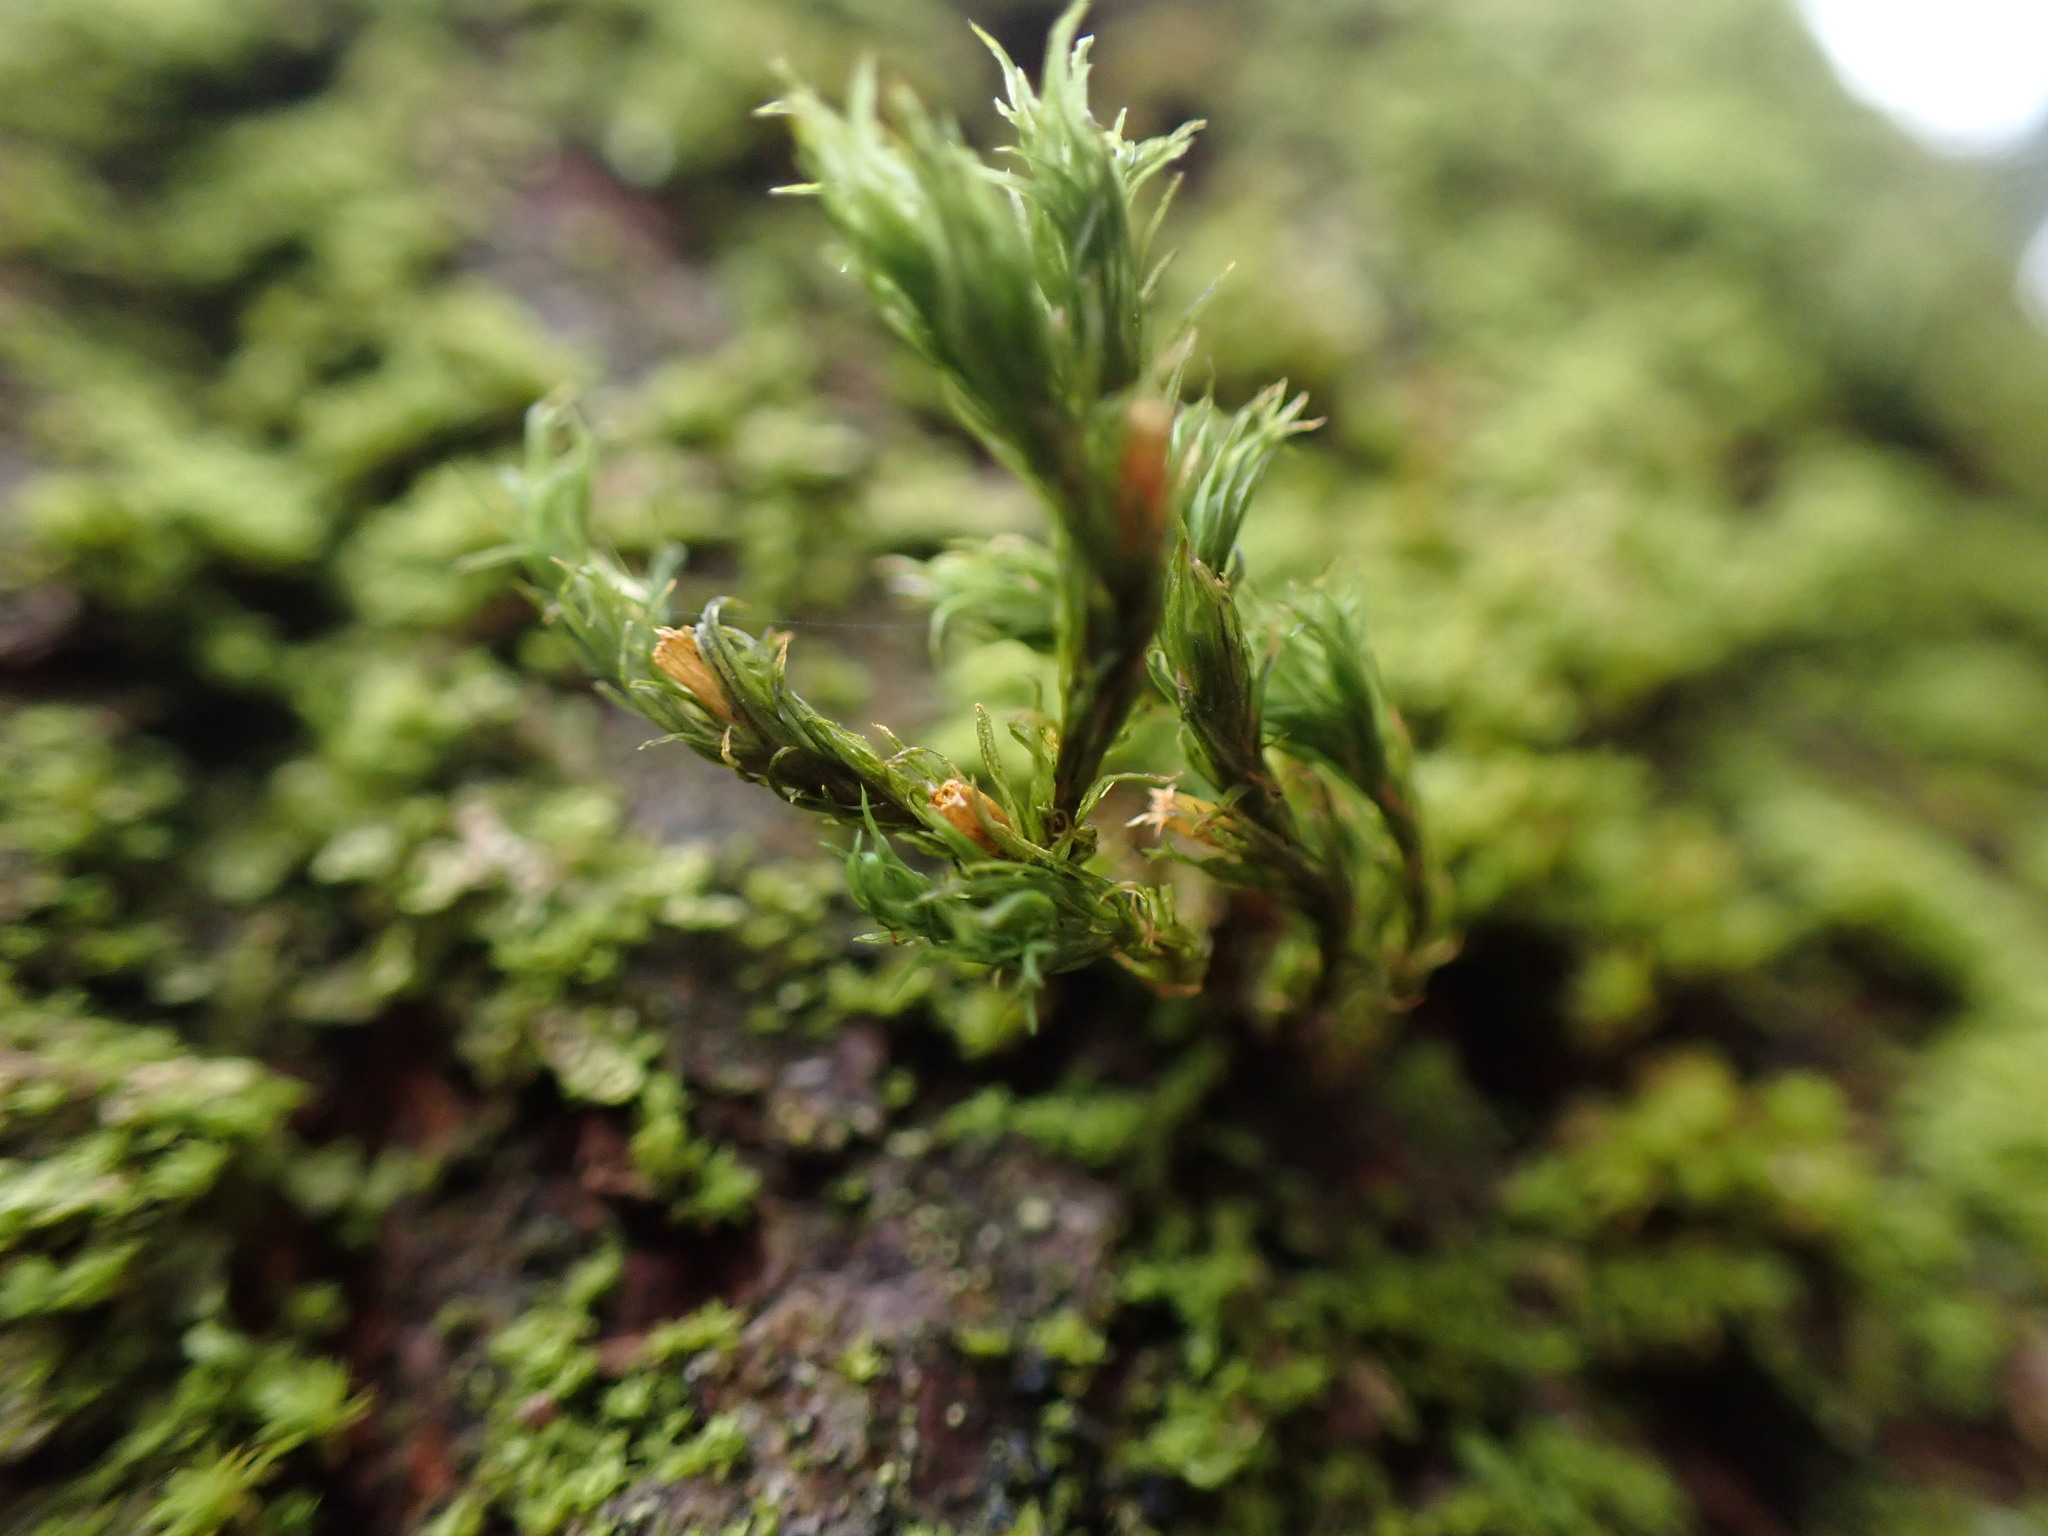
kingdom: Plantae
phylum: Bryophyta
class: Bryopsida
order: Orthotrichales
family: Orthotrichaceae
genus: Pulvigera
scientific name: Pulvigera papillosa
